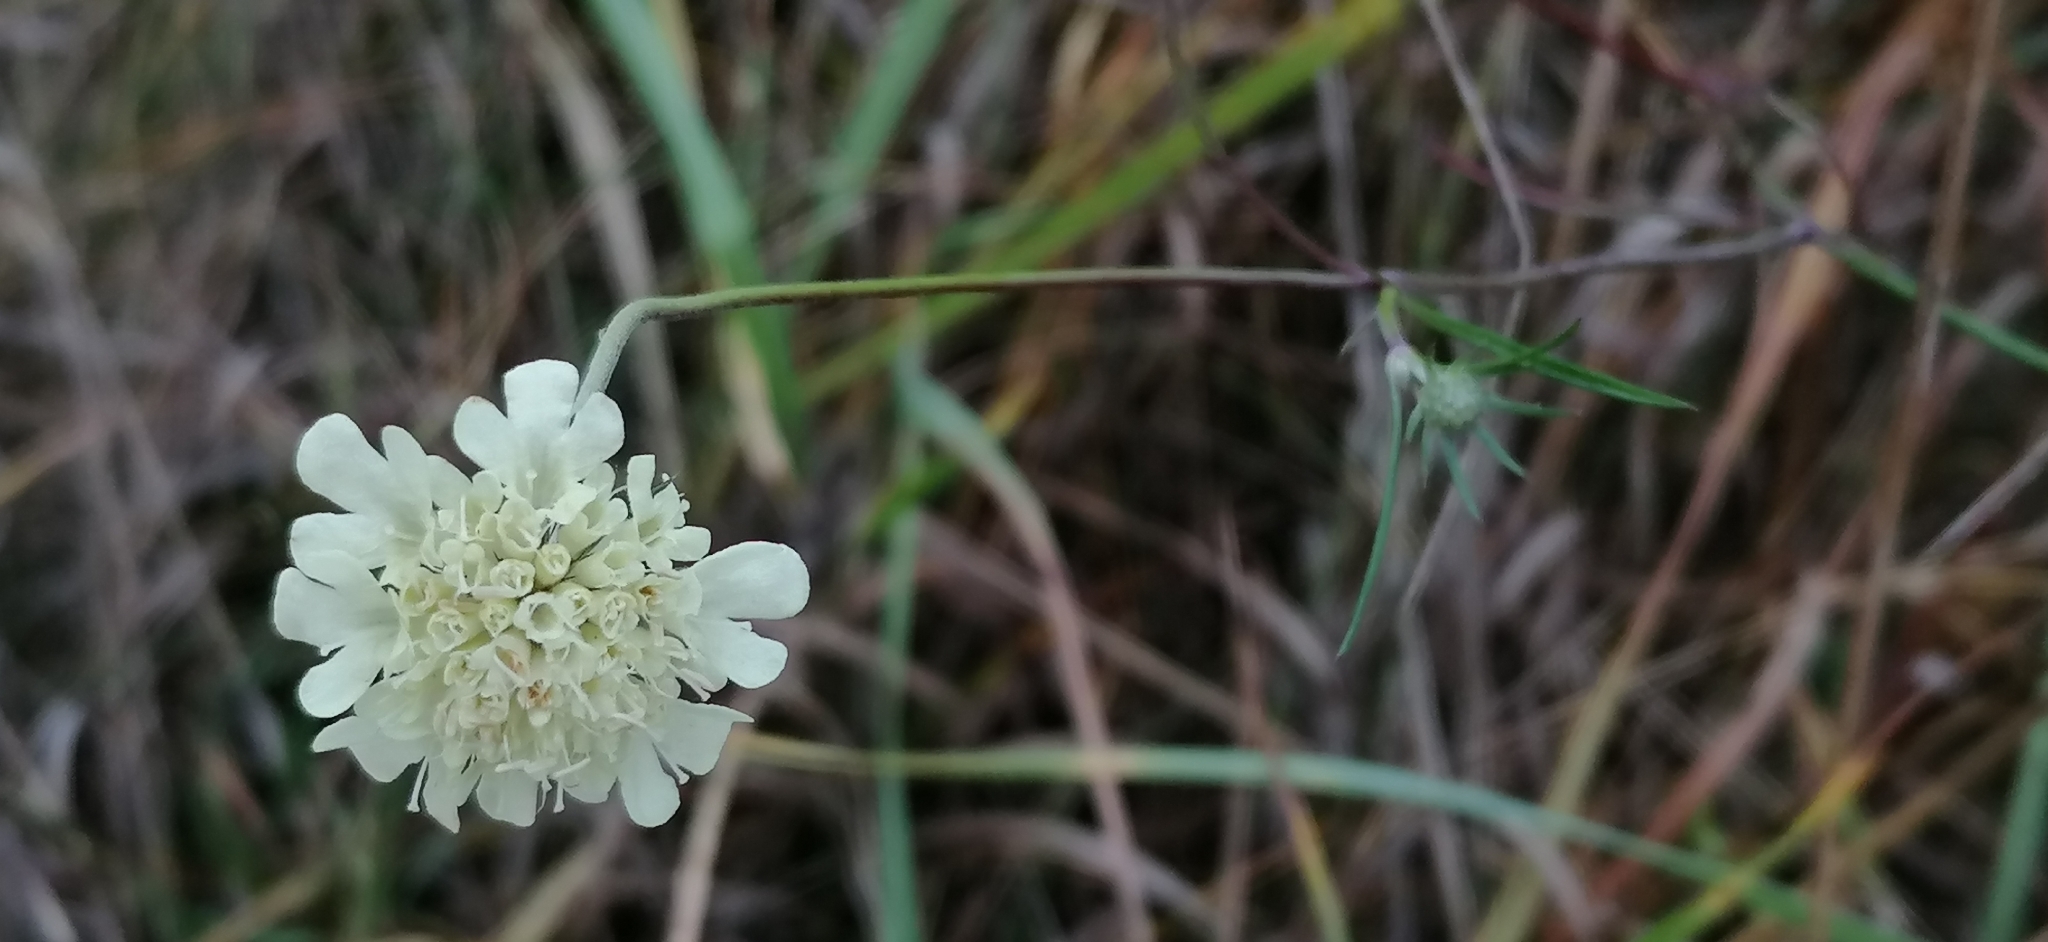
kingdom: Plantae
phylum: Tracheophyta
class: Magnoliopsida
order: Dipsacales
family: Caprifoliaceae
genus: Scabiosa
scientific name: Scabiosa ochroleuca
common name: Cream pincushions
